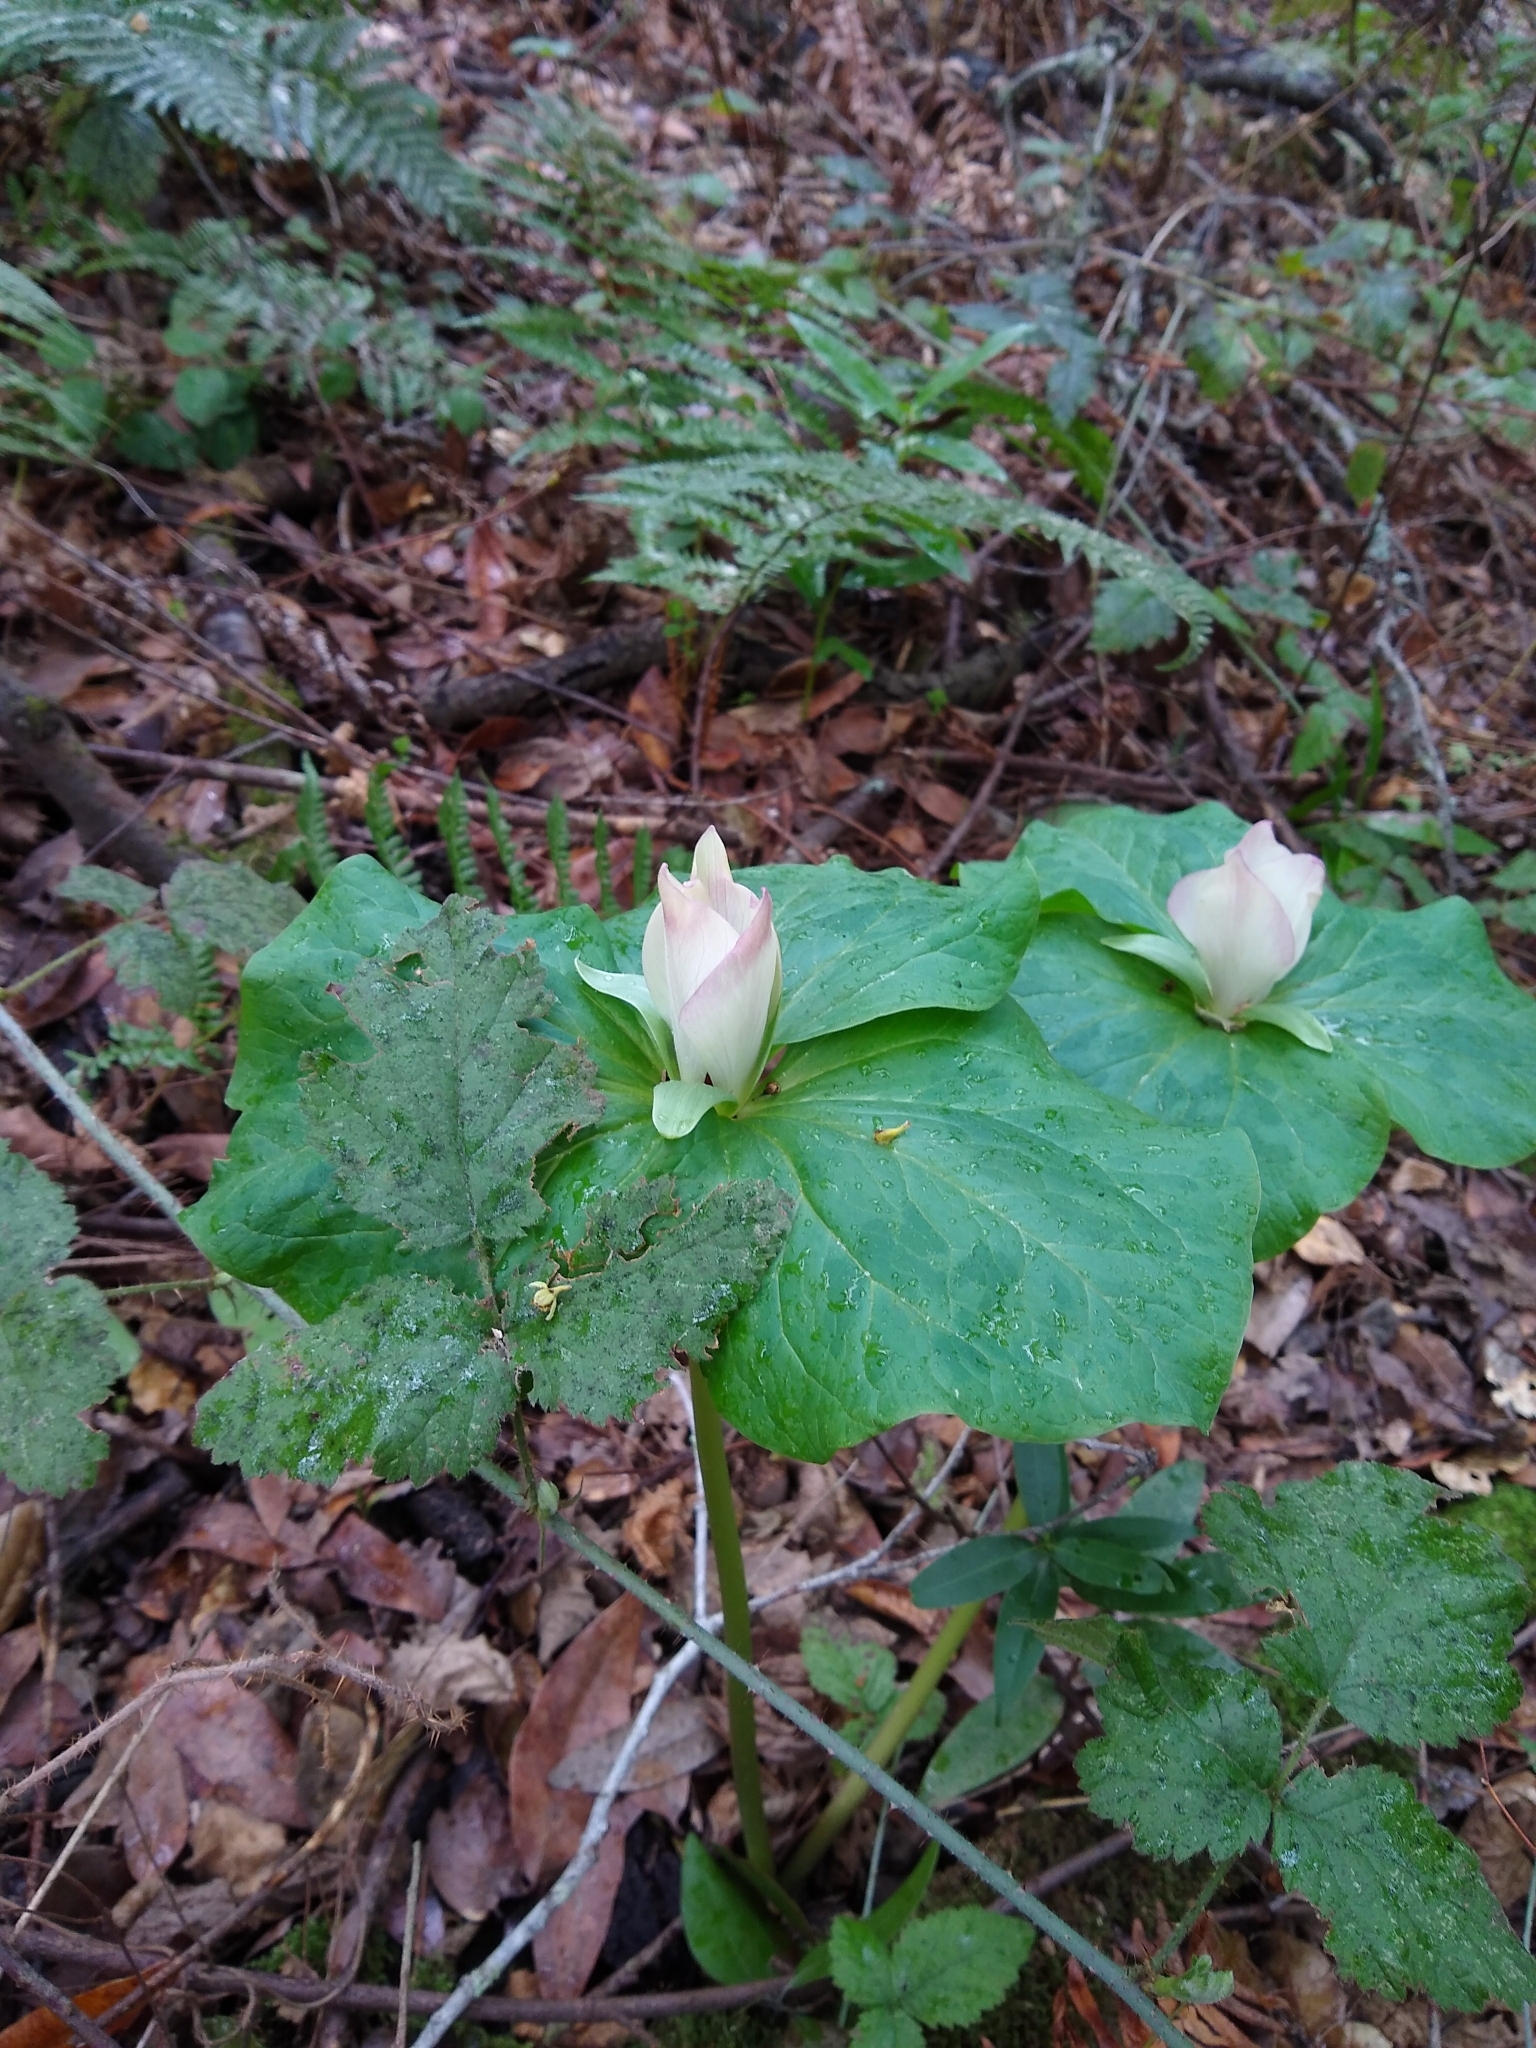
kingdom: Plantae
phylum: Tracheophyta
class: Liliopsida
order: Liliales
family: Melanthiaceae
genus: Trillium
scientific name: Trillium chloropetalum
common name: Giant trillium
